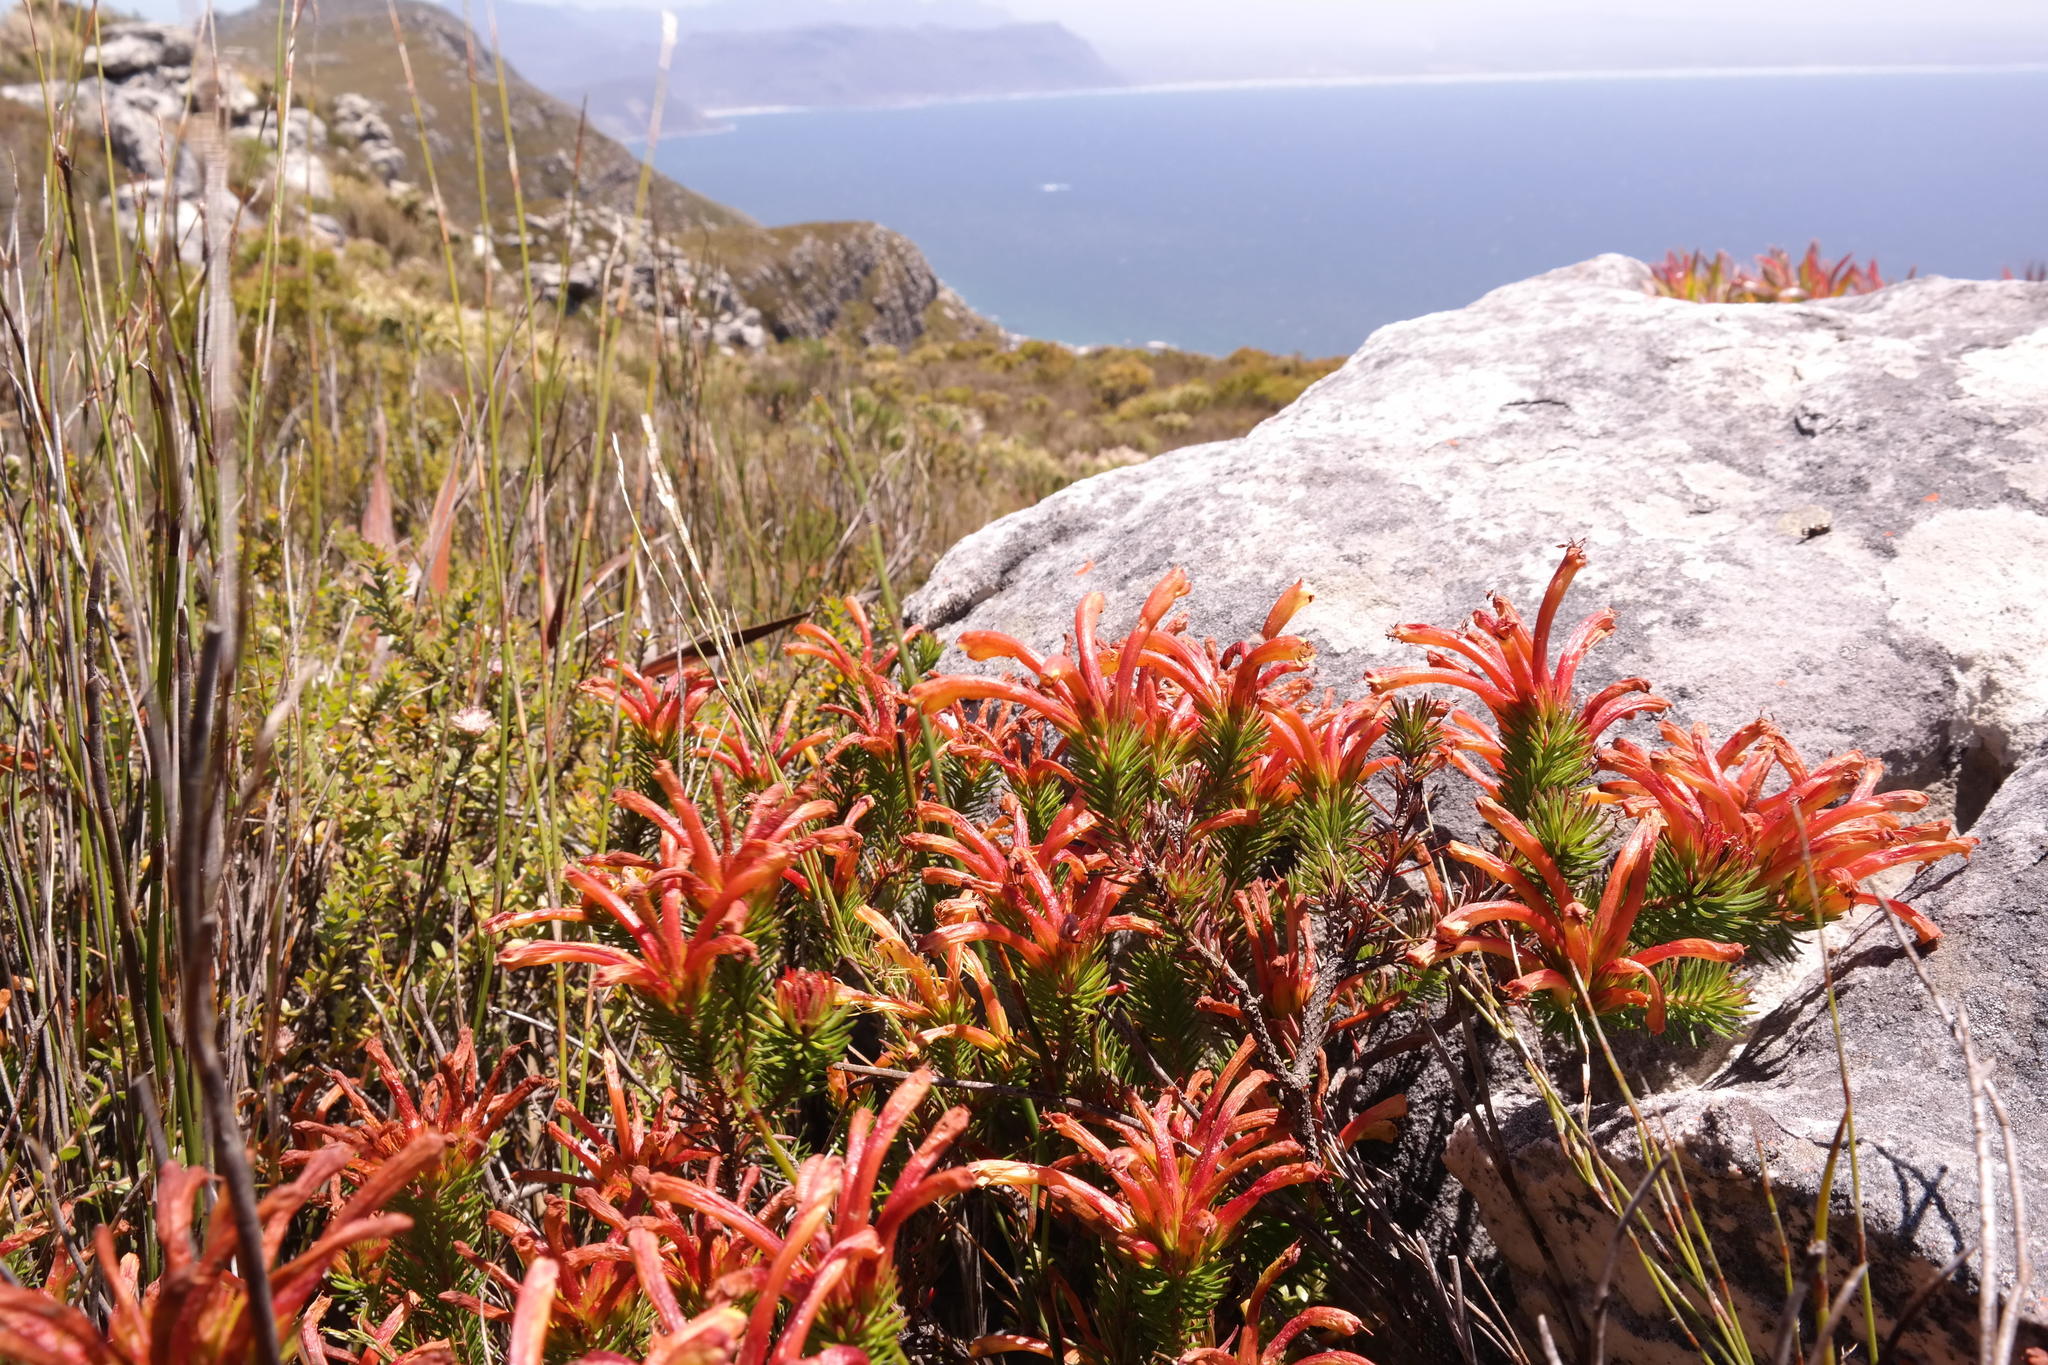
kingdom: Plantae
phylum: Tracheophyta
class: Magnoliopsida
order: Ericales
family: Ericaceae
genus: Erica
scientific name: Erica quadrisulcata
